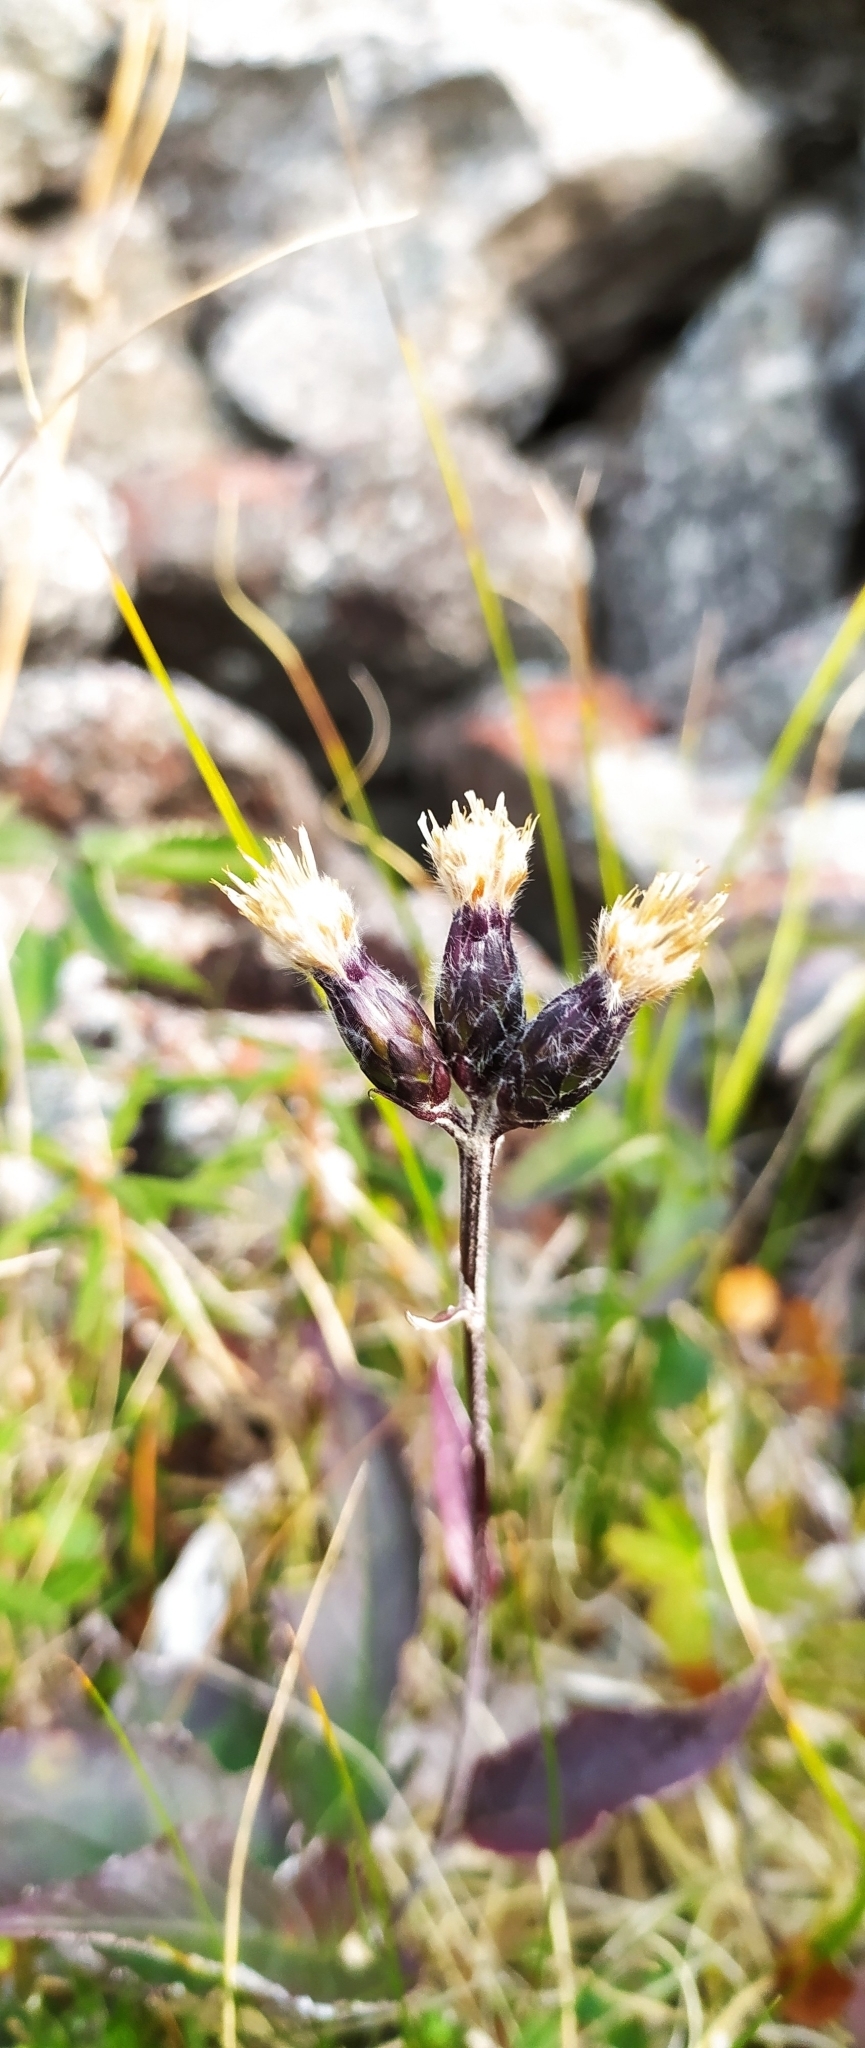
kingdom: Plantae
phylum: Tracheophyta
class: Magnoliopsida
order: Asterales
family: Asteraceae
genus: Saussurea
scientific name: Saussurea alpina
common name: Alpine saw-wort
